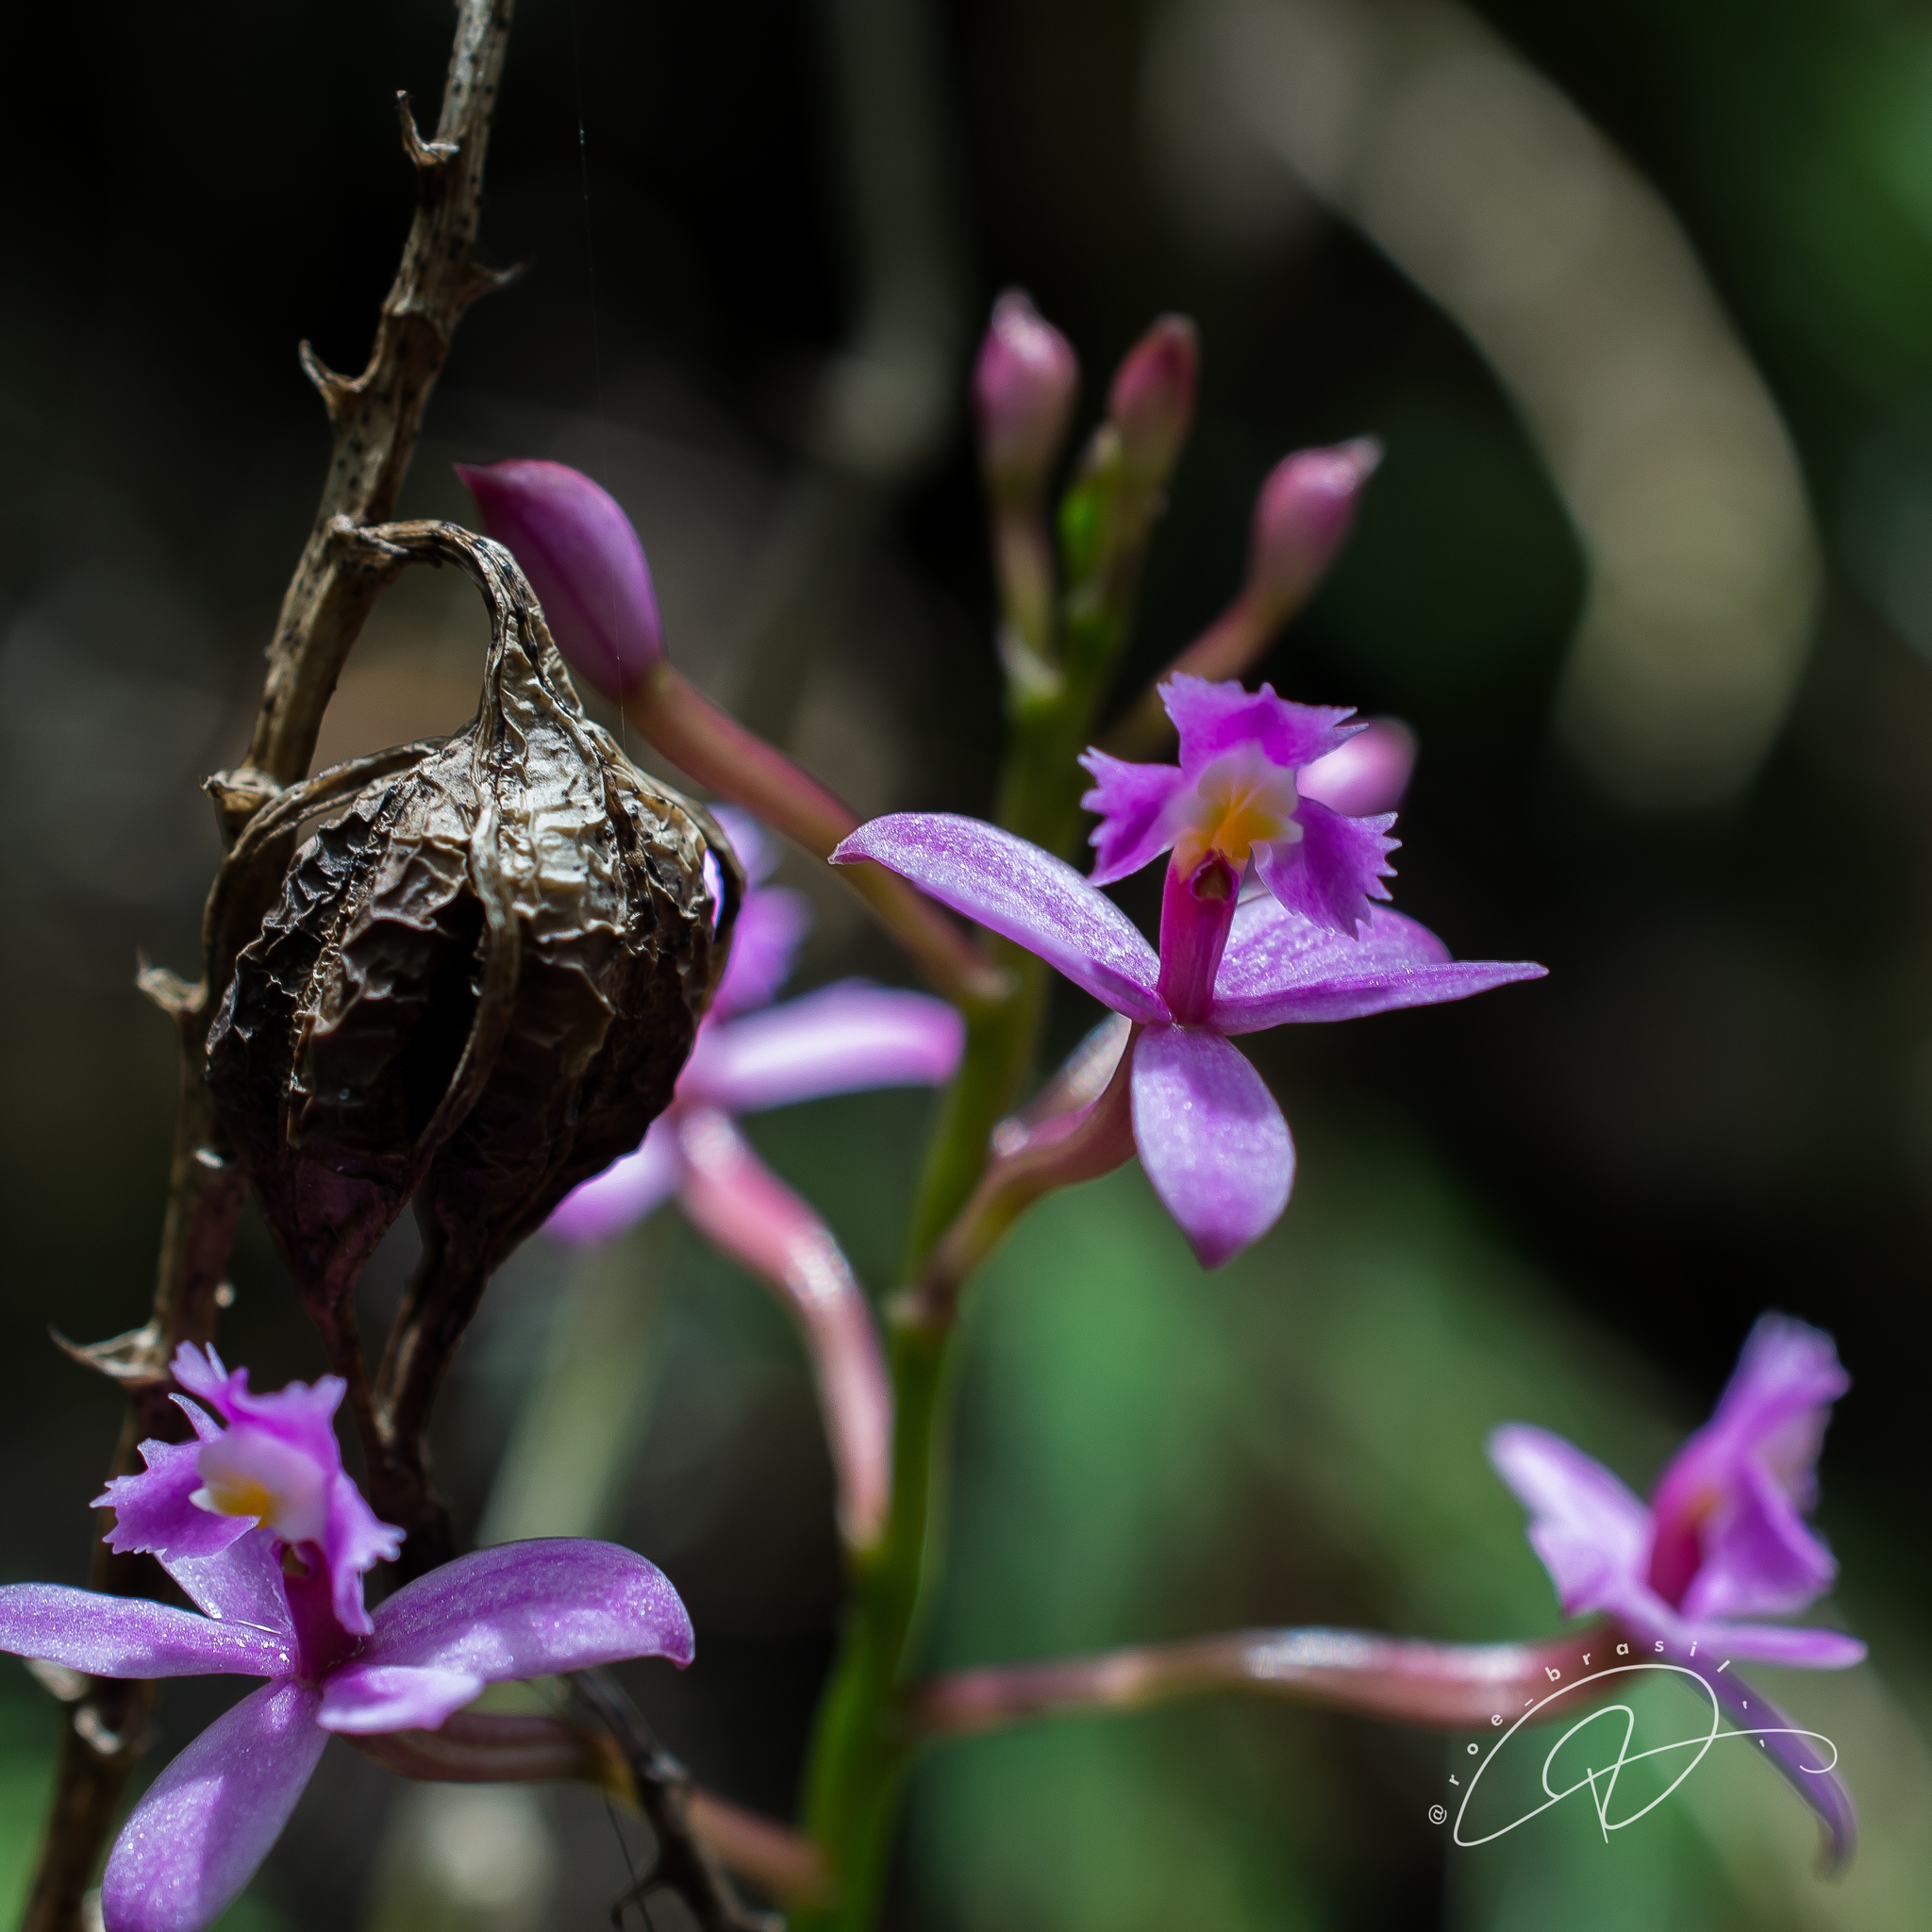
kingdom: Plantae
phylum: Tracheophyta
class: Liliopsida
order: Asparagales
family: Orchidaceae
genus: Epidendrum
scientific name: Epidendrum secundum
